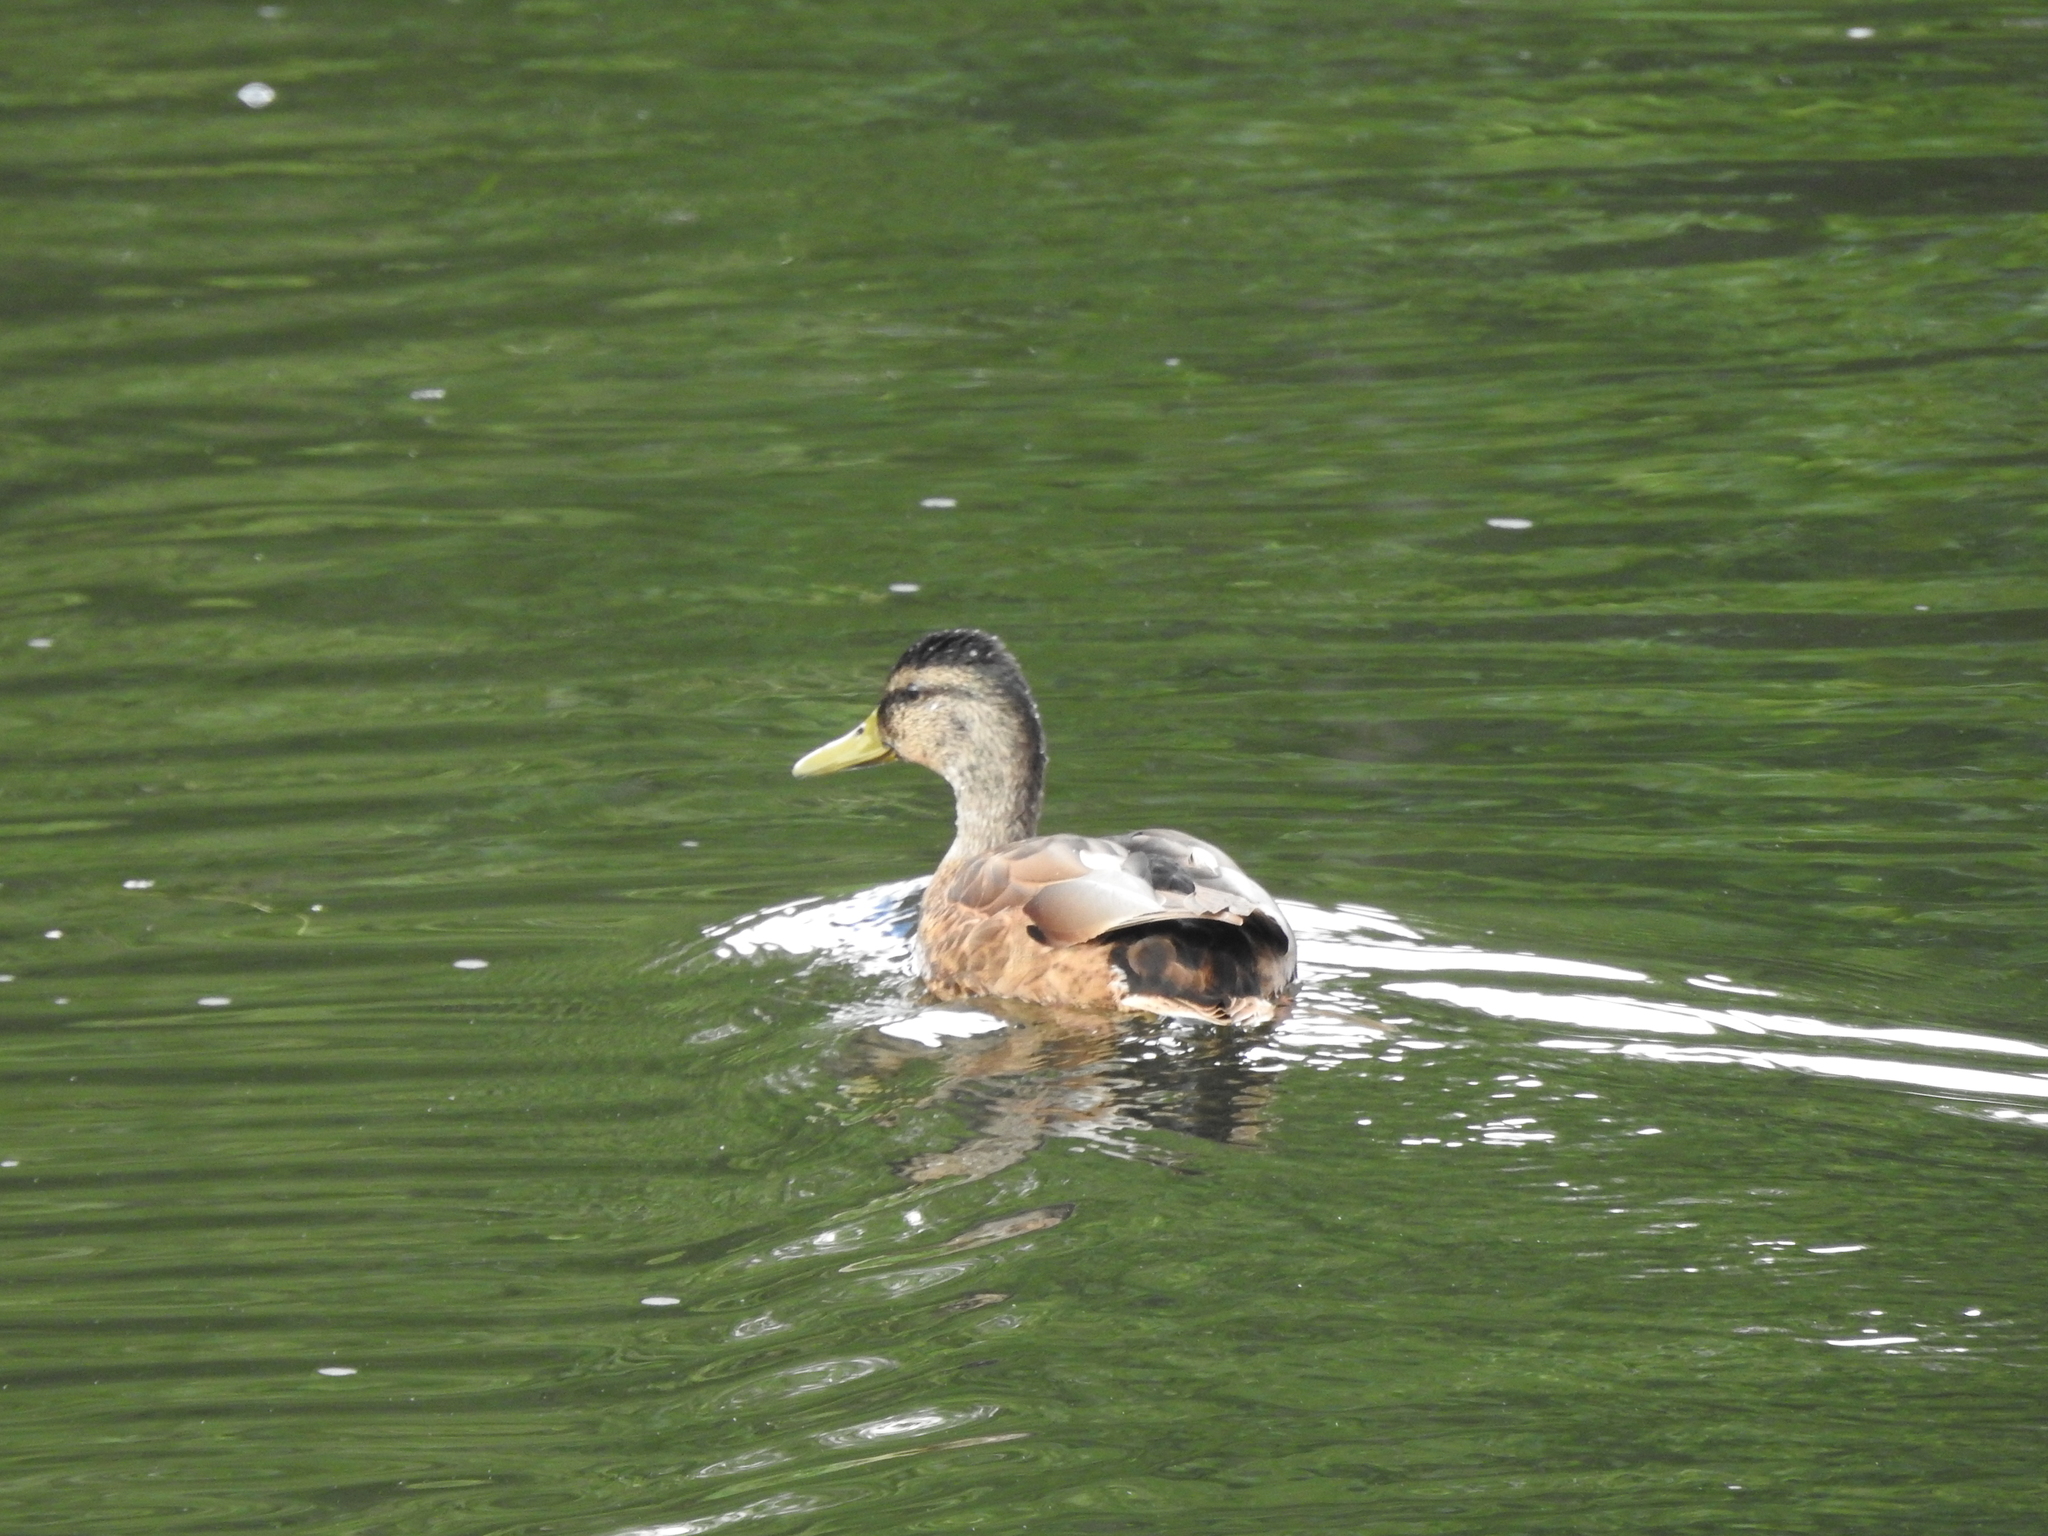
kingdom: Animalia
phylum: Chordata
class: Aves
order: Anseriformes
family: Anatidae
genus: Anas
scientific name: Anas platyrhynchos
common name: Mallard
